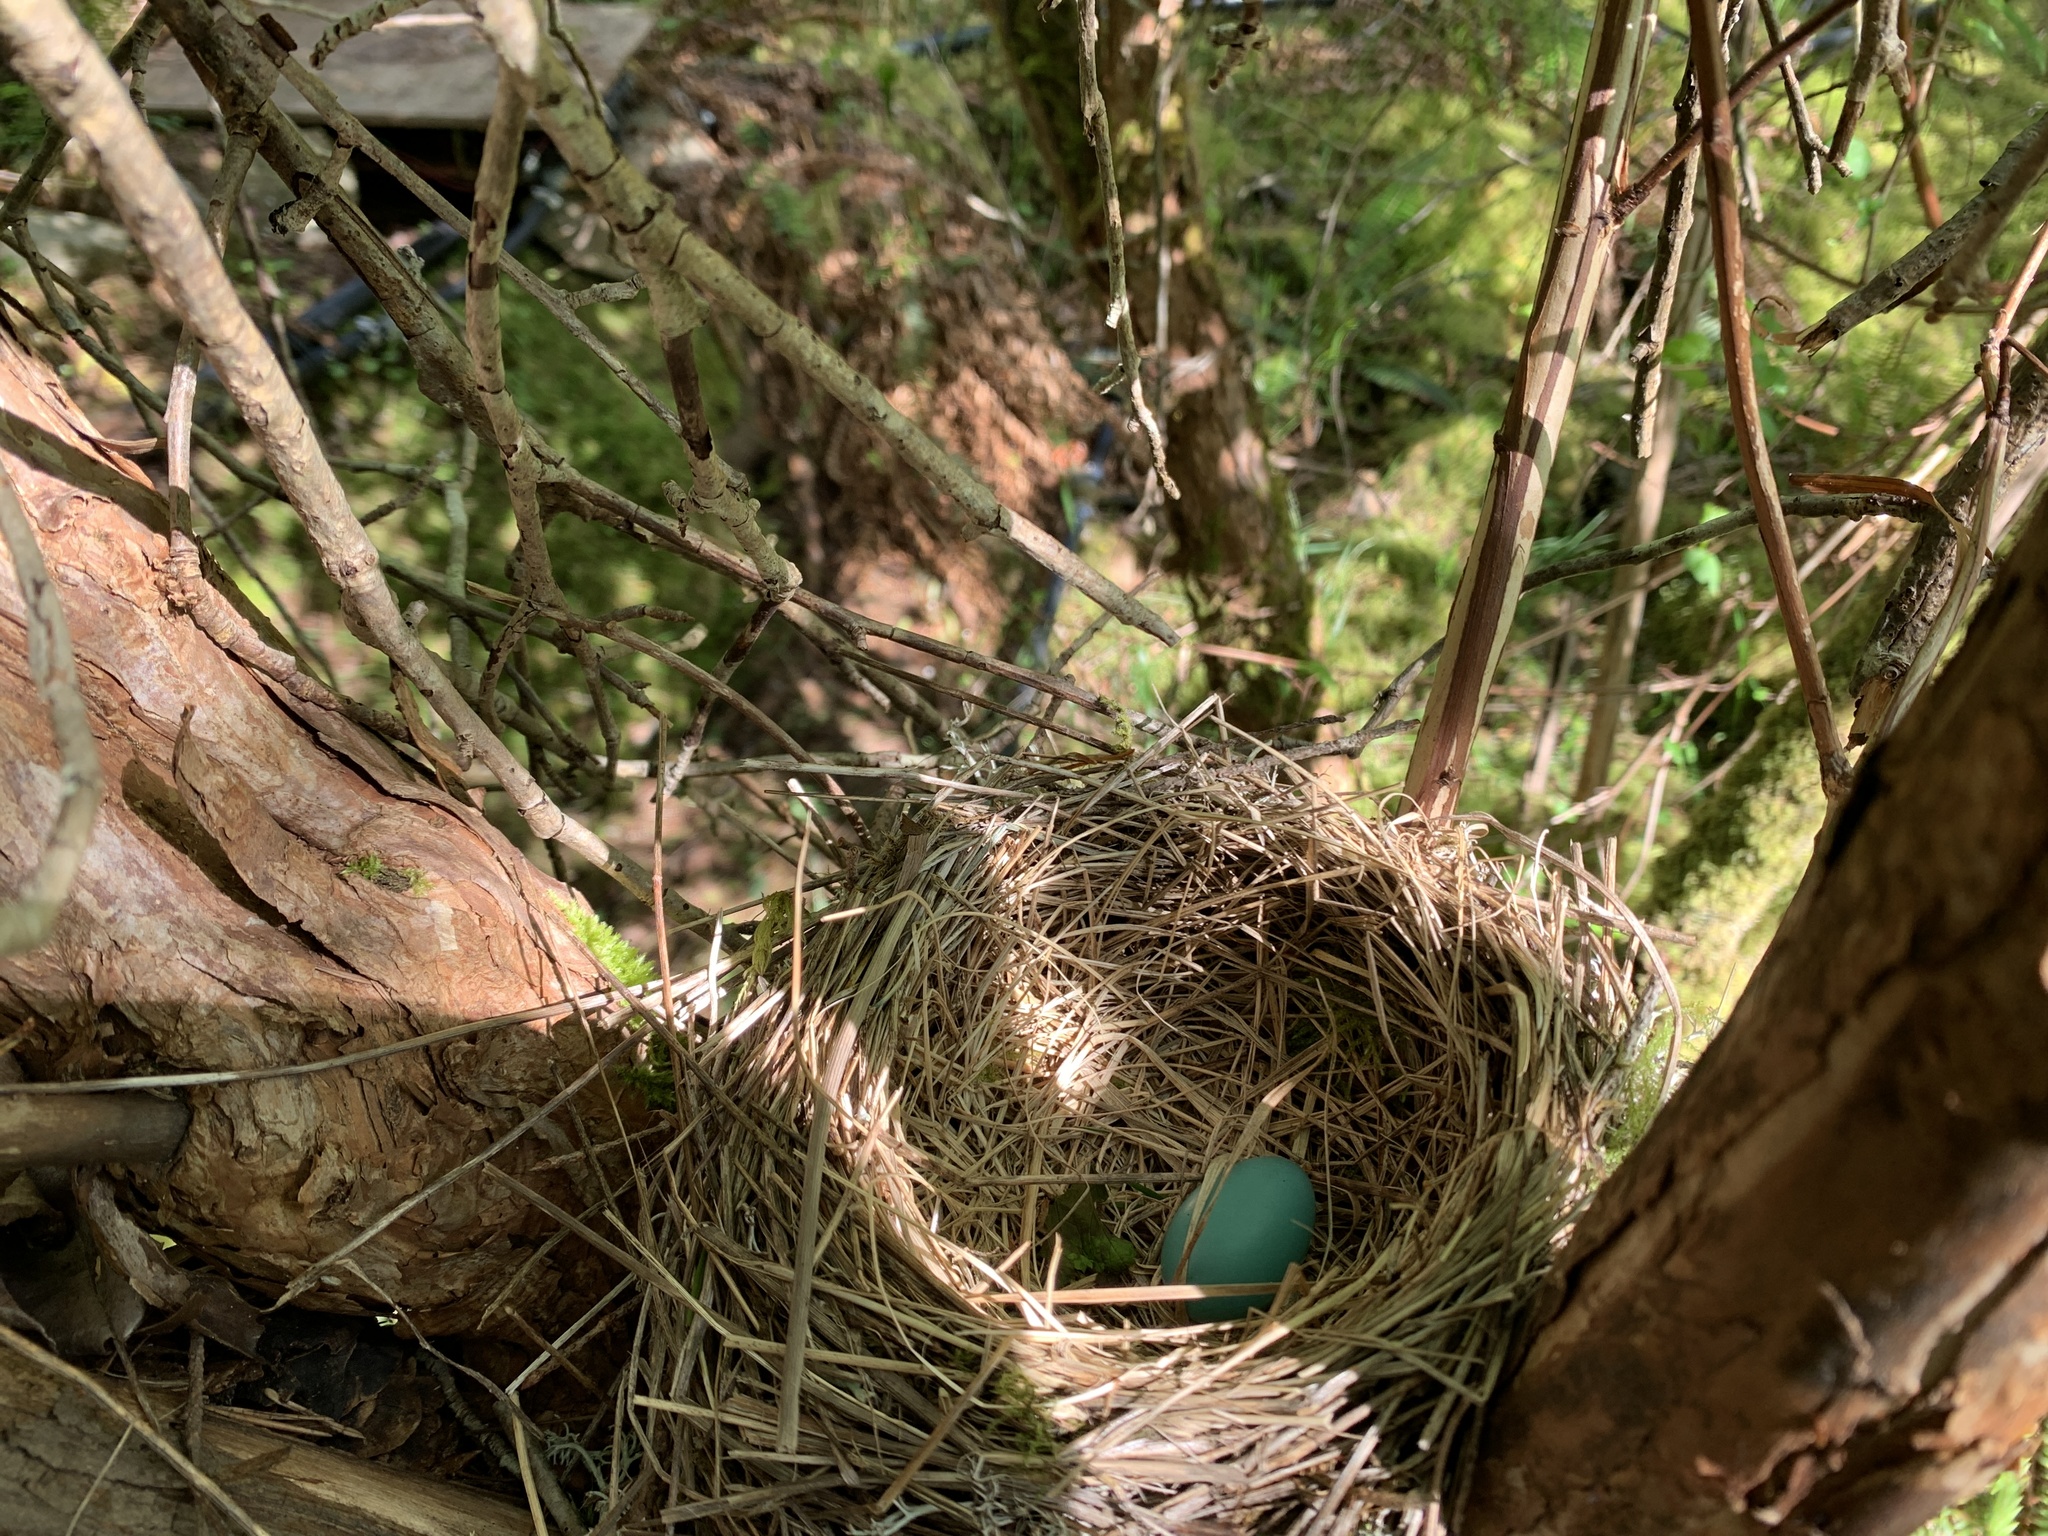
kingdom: Animalia
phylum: Chordata
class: Aves
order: Passeriformes
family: Turdidae
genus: Turdus
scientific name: Turdus migratorius
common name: American robin
